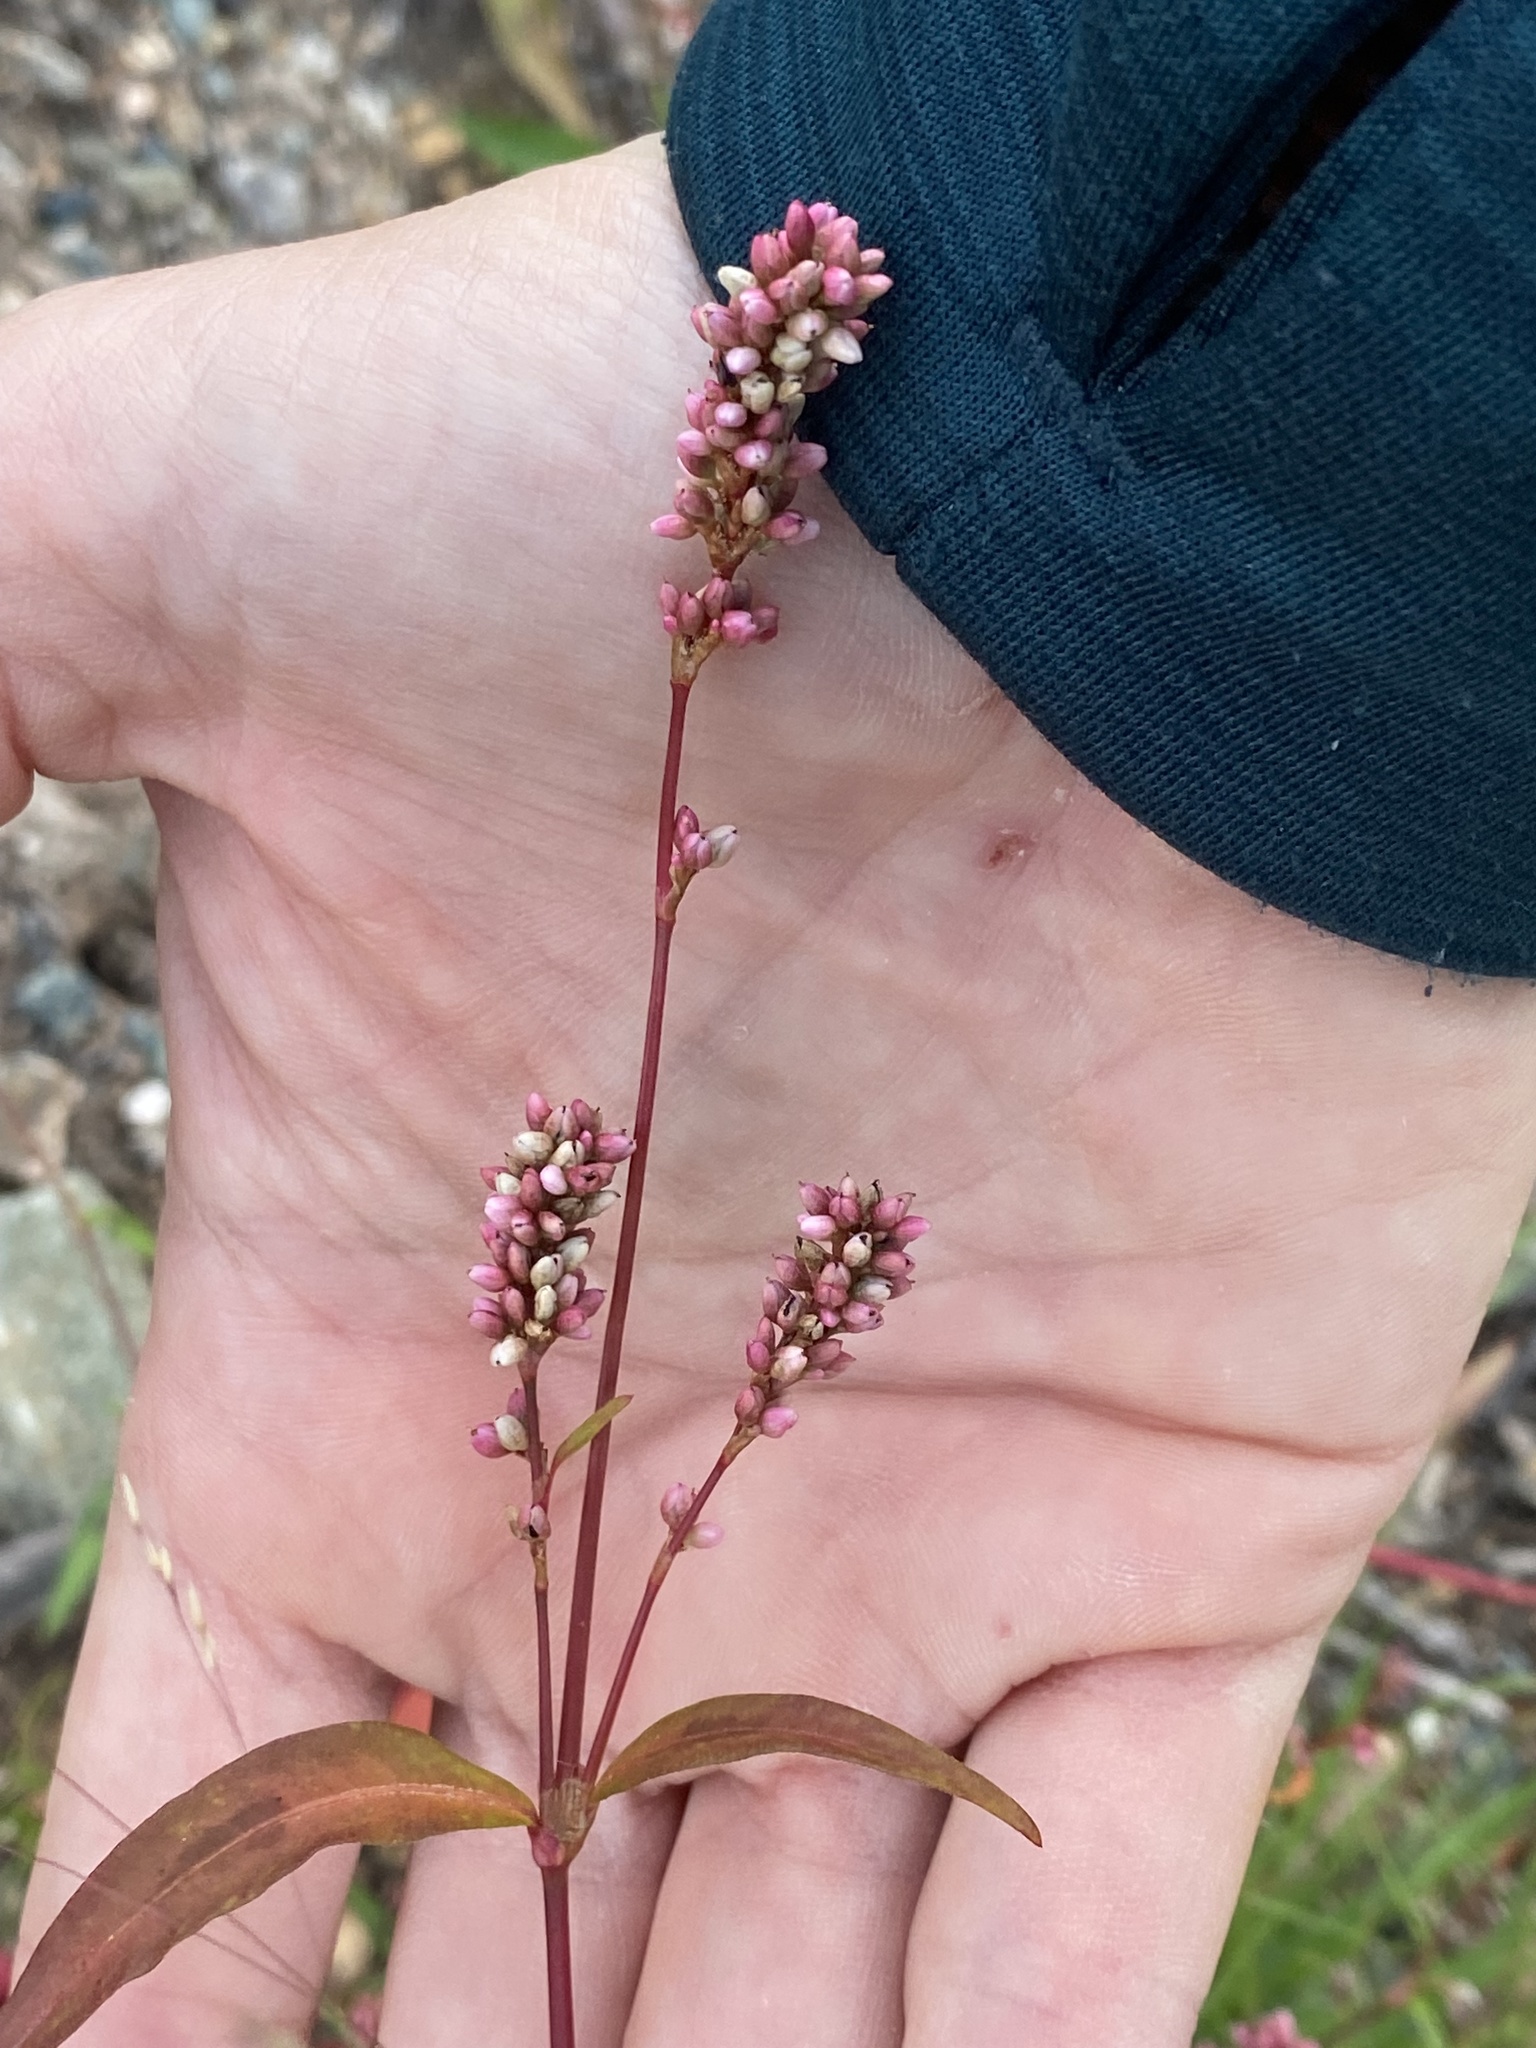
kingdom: Plantae
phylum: Tracheophyta
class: Magnoliopsida
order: Caryophyllales
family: Polygonaceae
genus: Persicaria
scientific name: Persicaria maculosa
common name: Redshank
